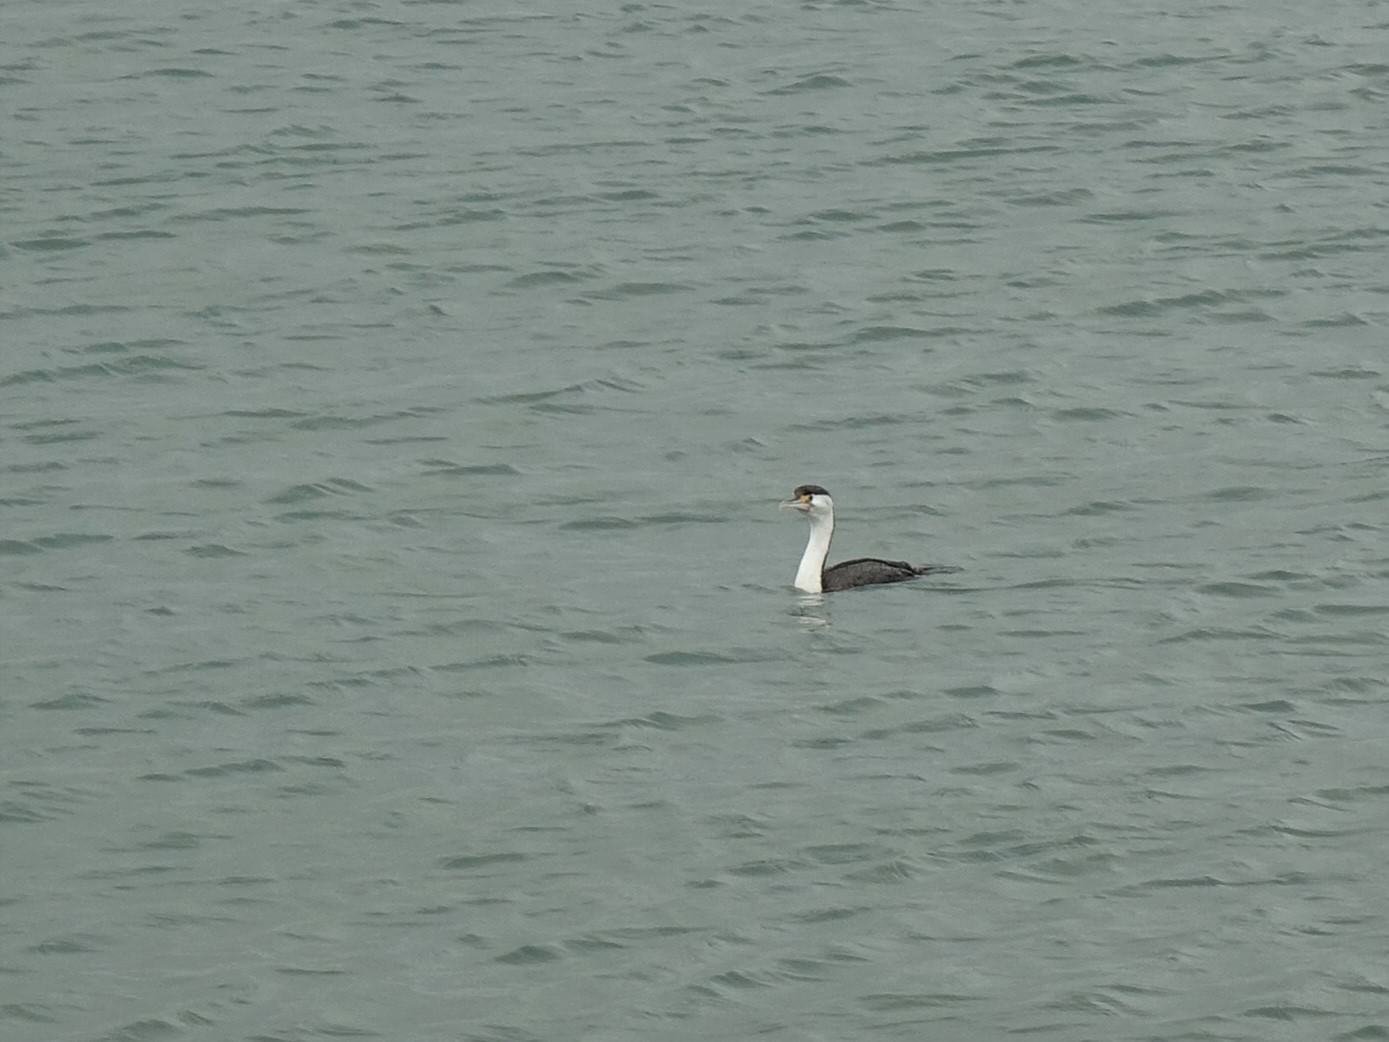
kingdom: Animalia
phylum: Chordata
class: Aves
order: Suliformes
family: Phalacrocoracidae
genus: Phalacrocorax
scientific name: Phalacrocorax varius
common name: Pied cormorant
